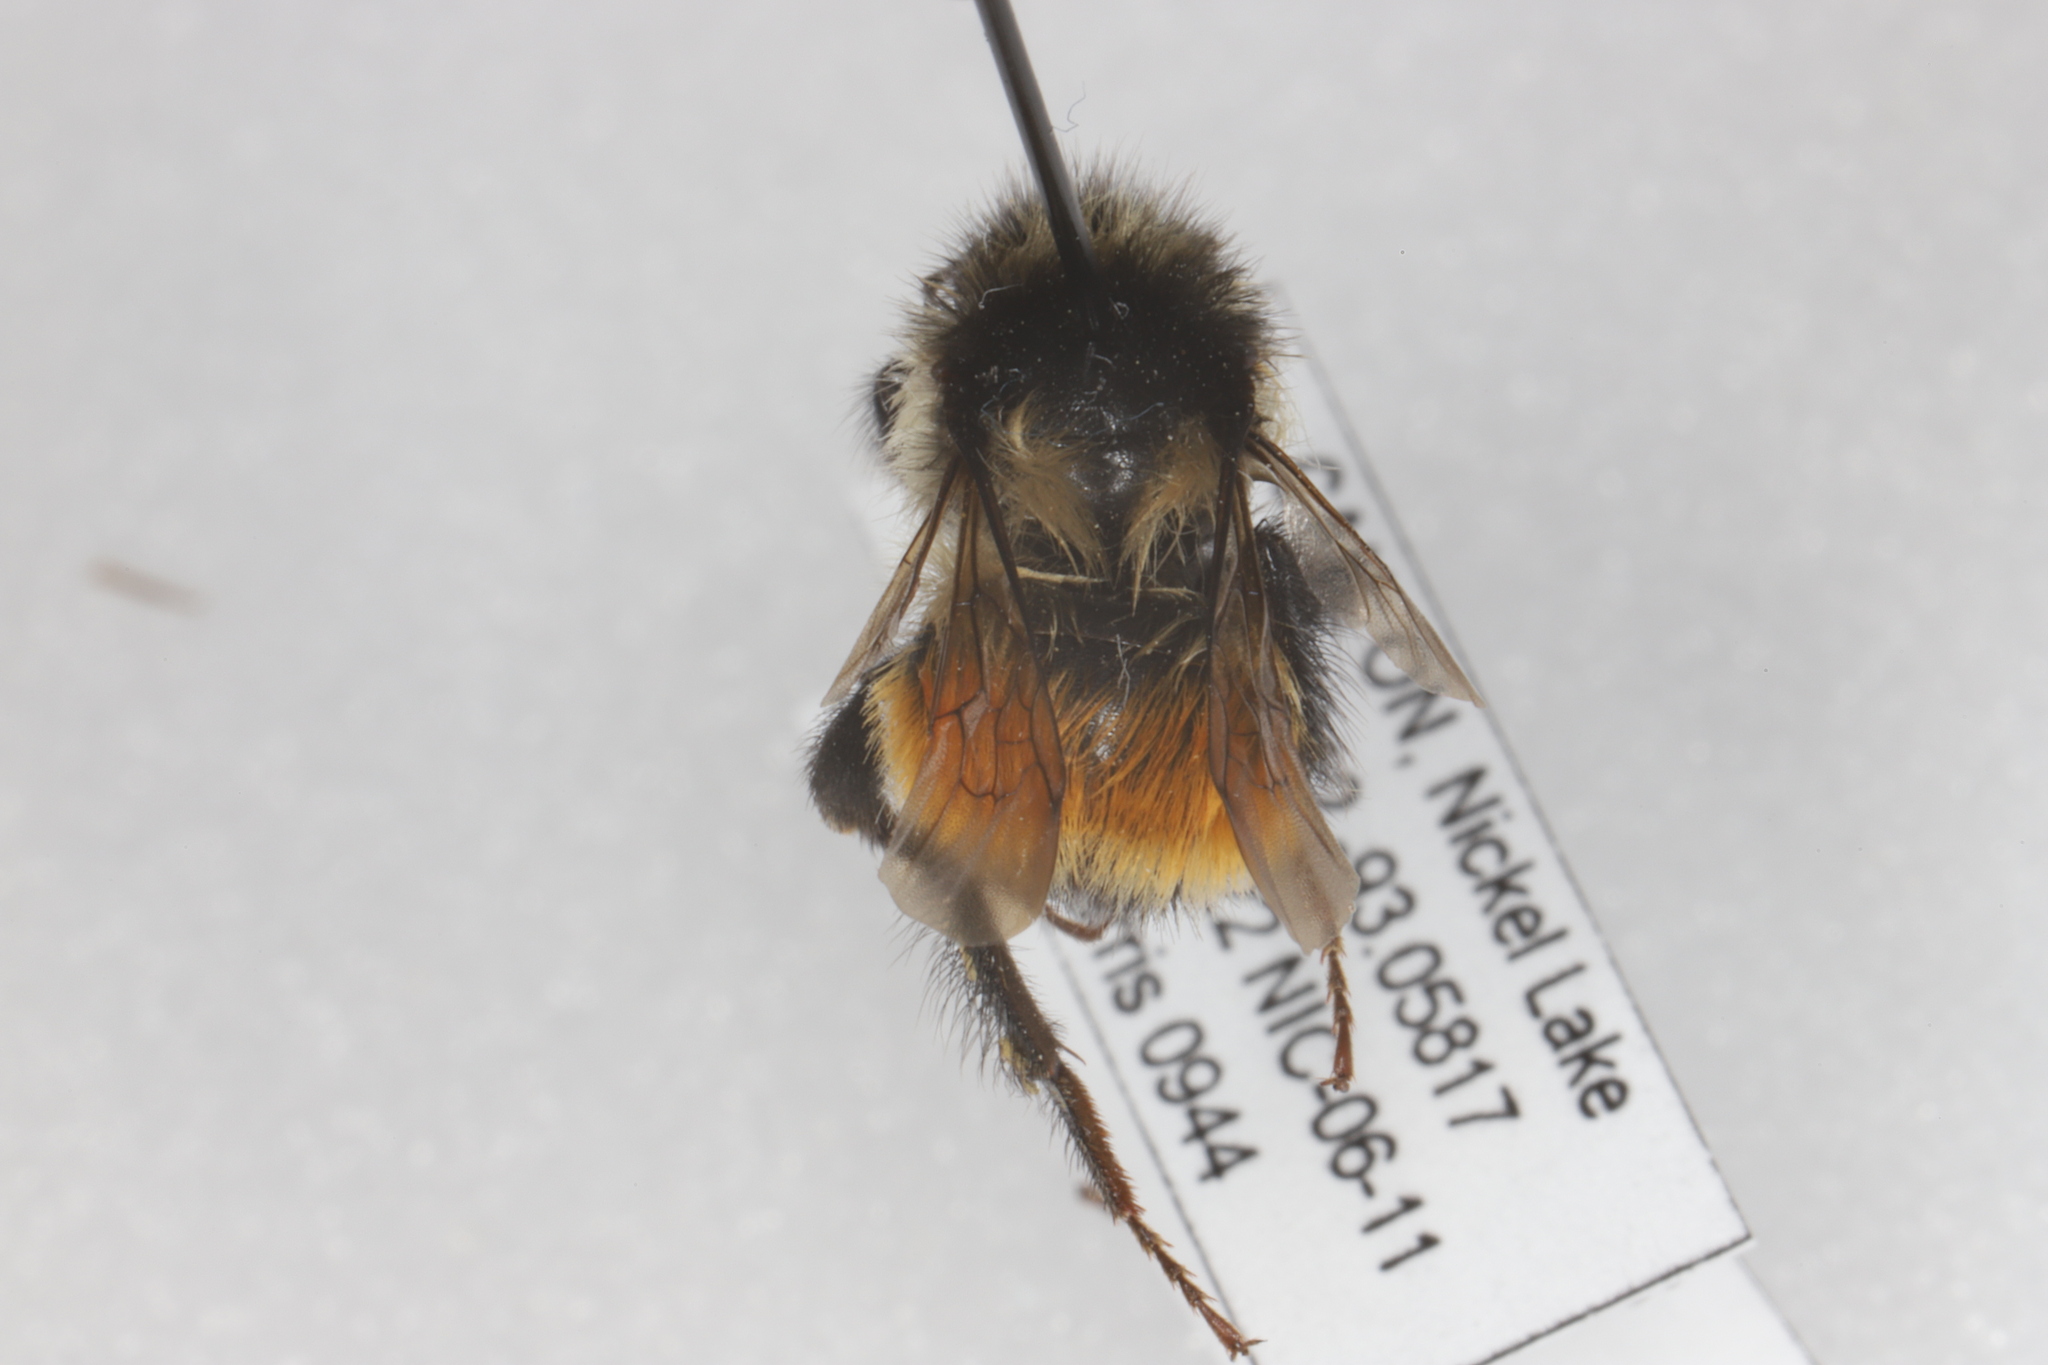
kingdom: Animalia
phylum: Arthropoda
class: Insecta
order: Hymenoptera
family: Apidae
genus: Bombus
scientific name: Bombus ternarius
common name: Tri-colored bumble bee
